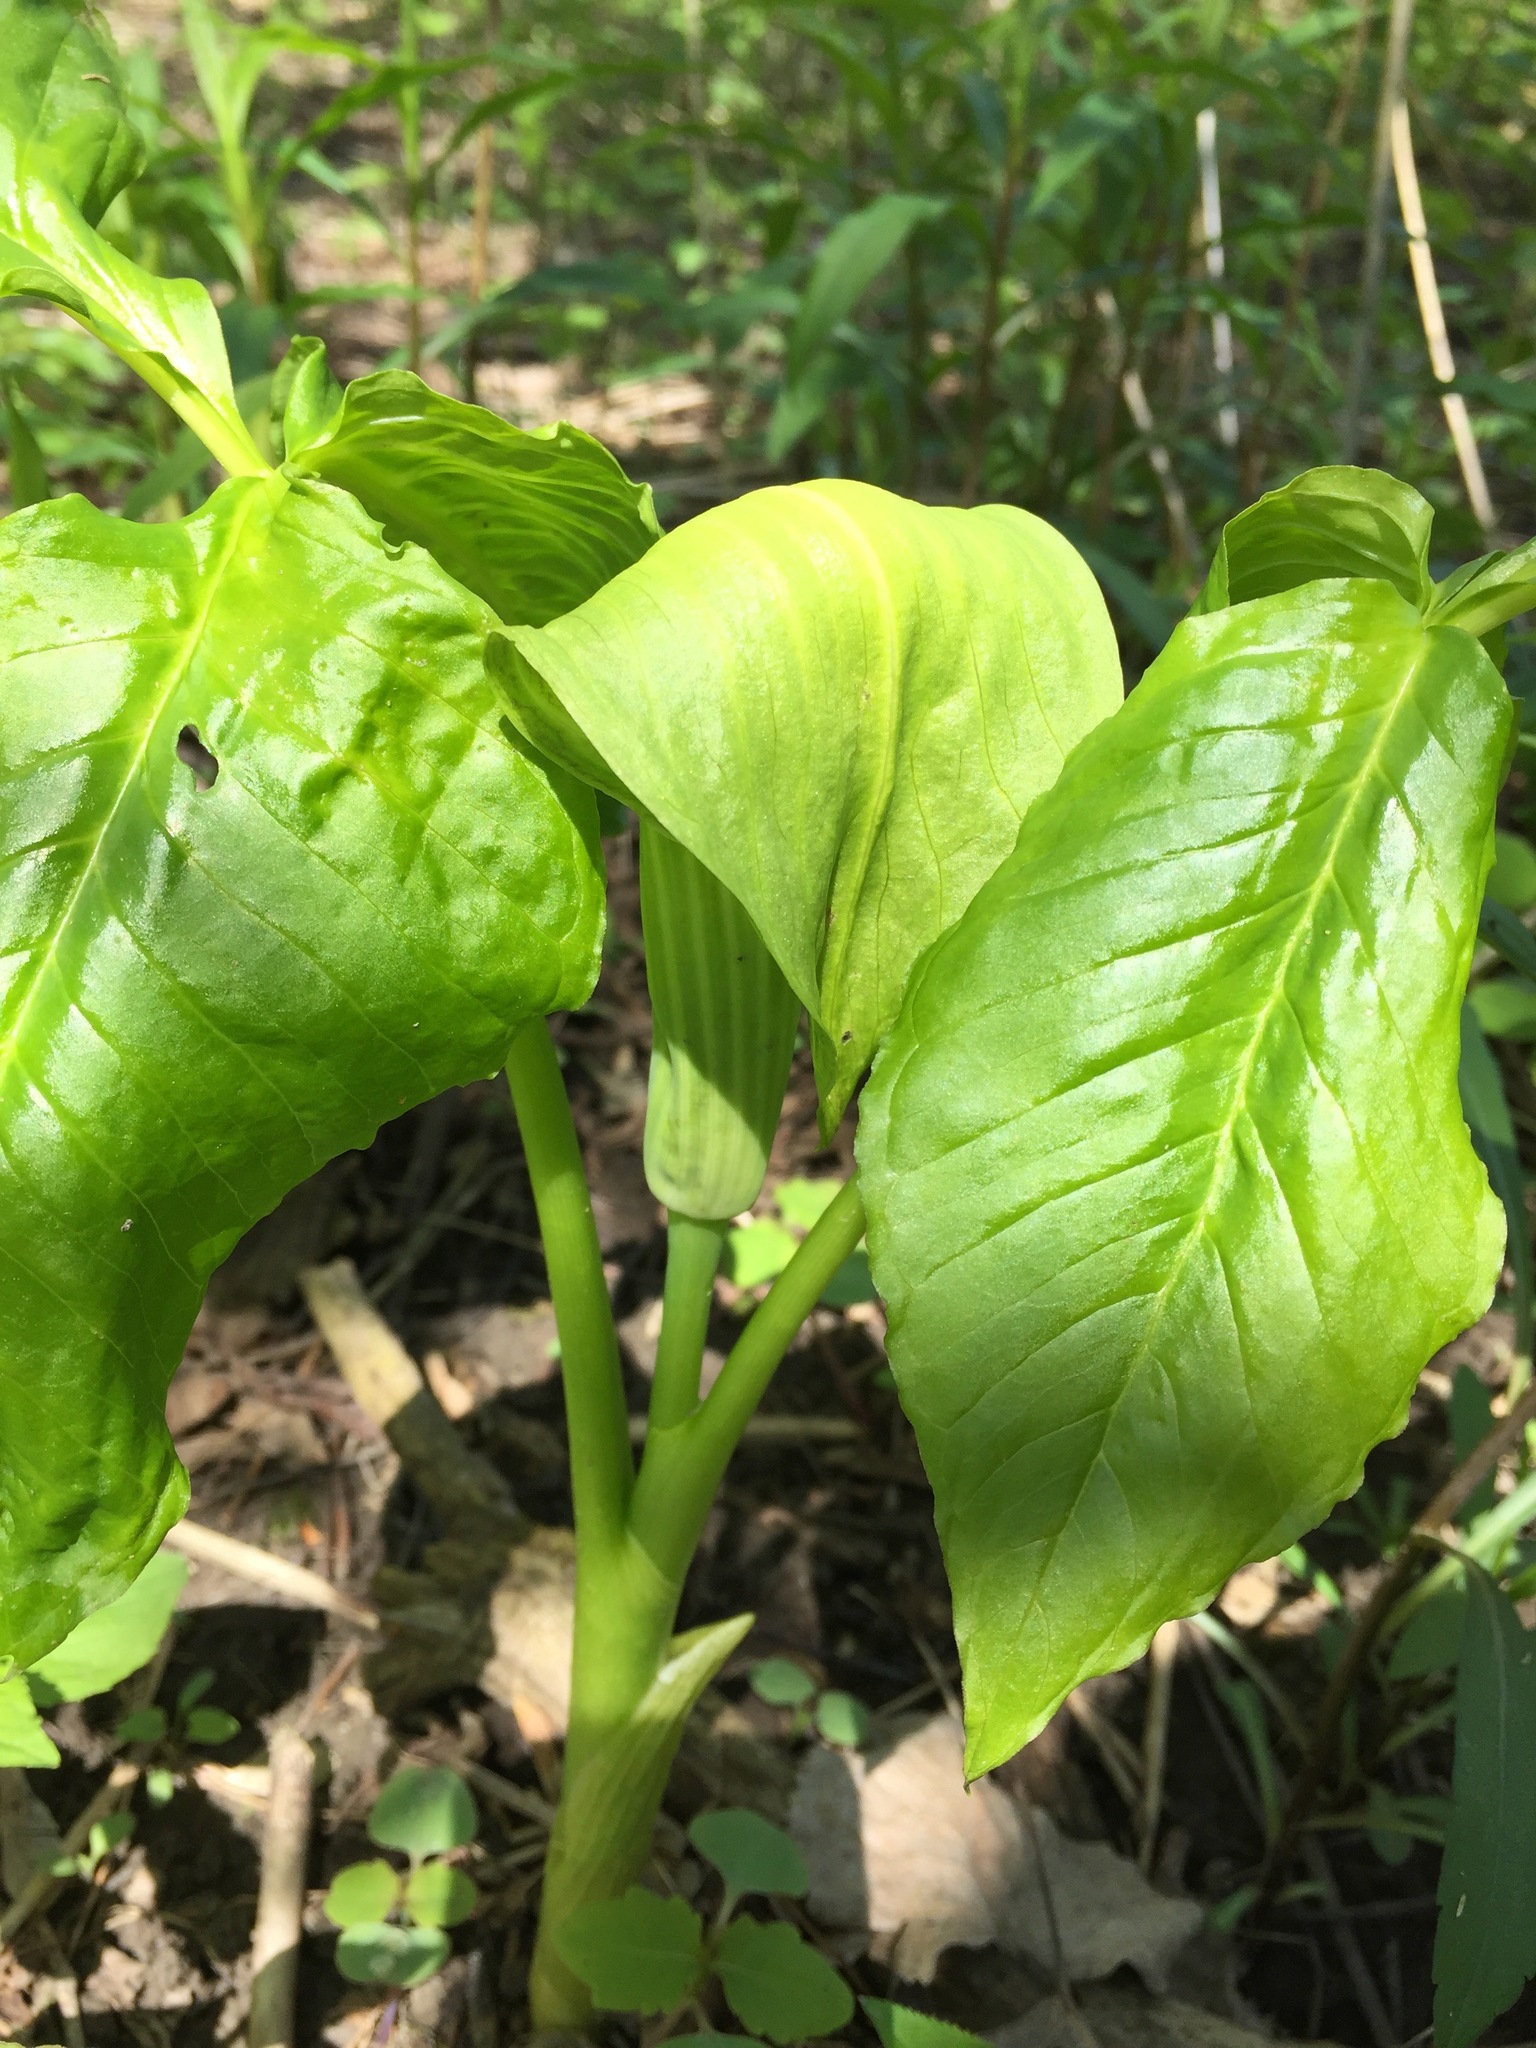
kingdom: Plantae
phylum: Tracheophyta
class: Liliopsida
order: Alismatales
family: Araceae
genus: Arisaema
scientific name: Arisaema triphyllum
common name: Jack-in-the-pulpit
